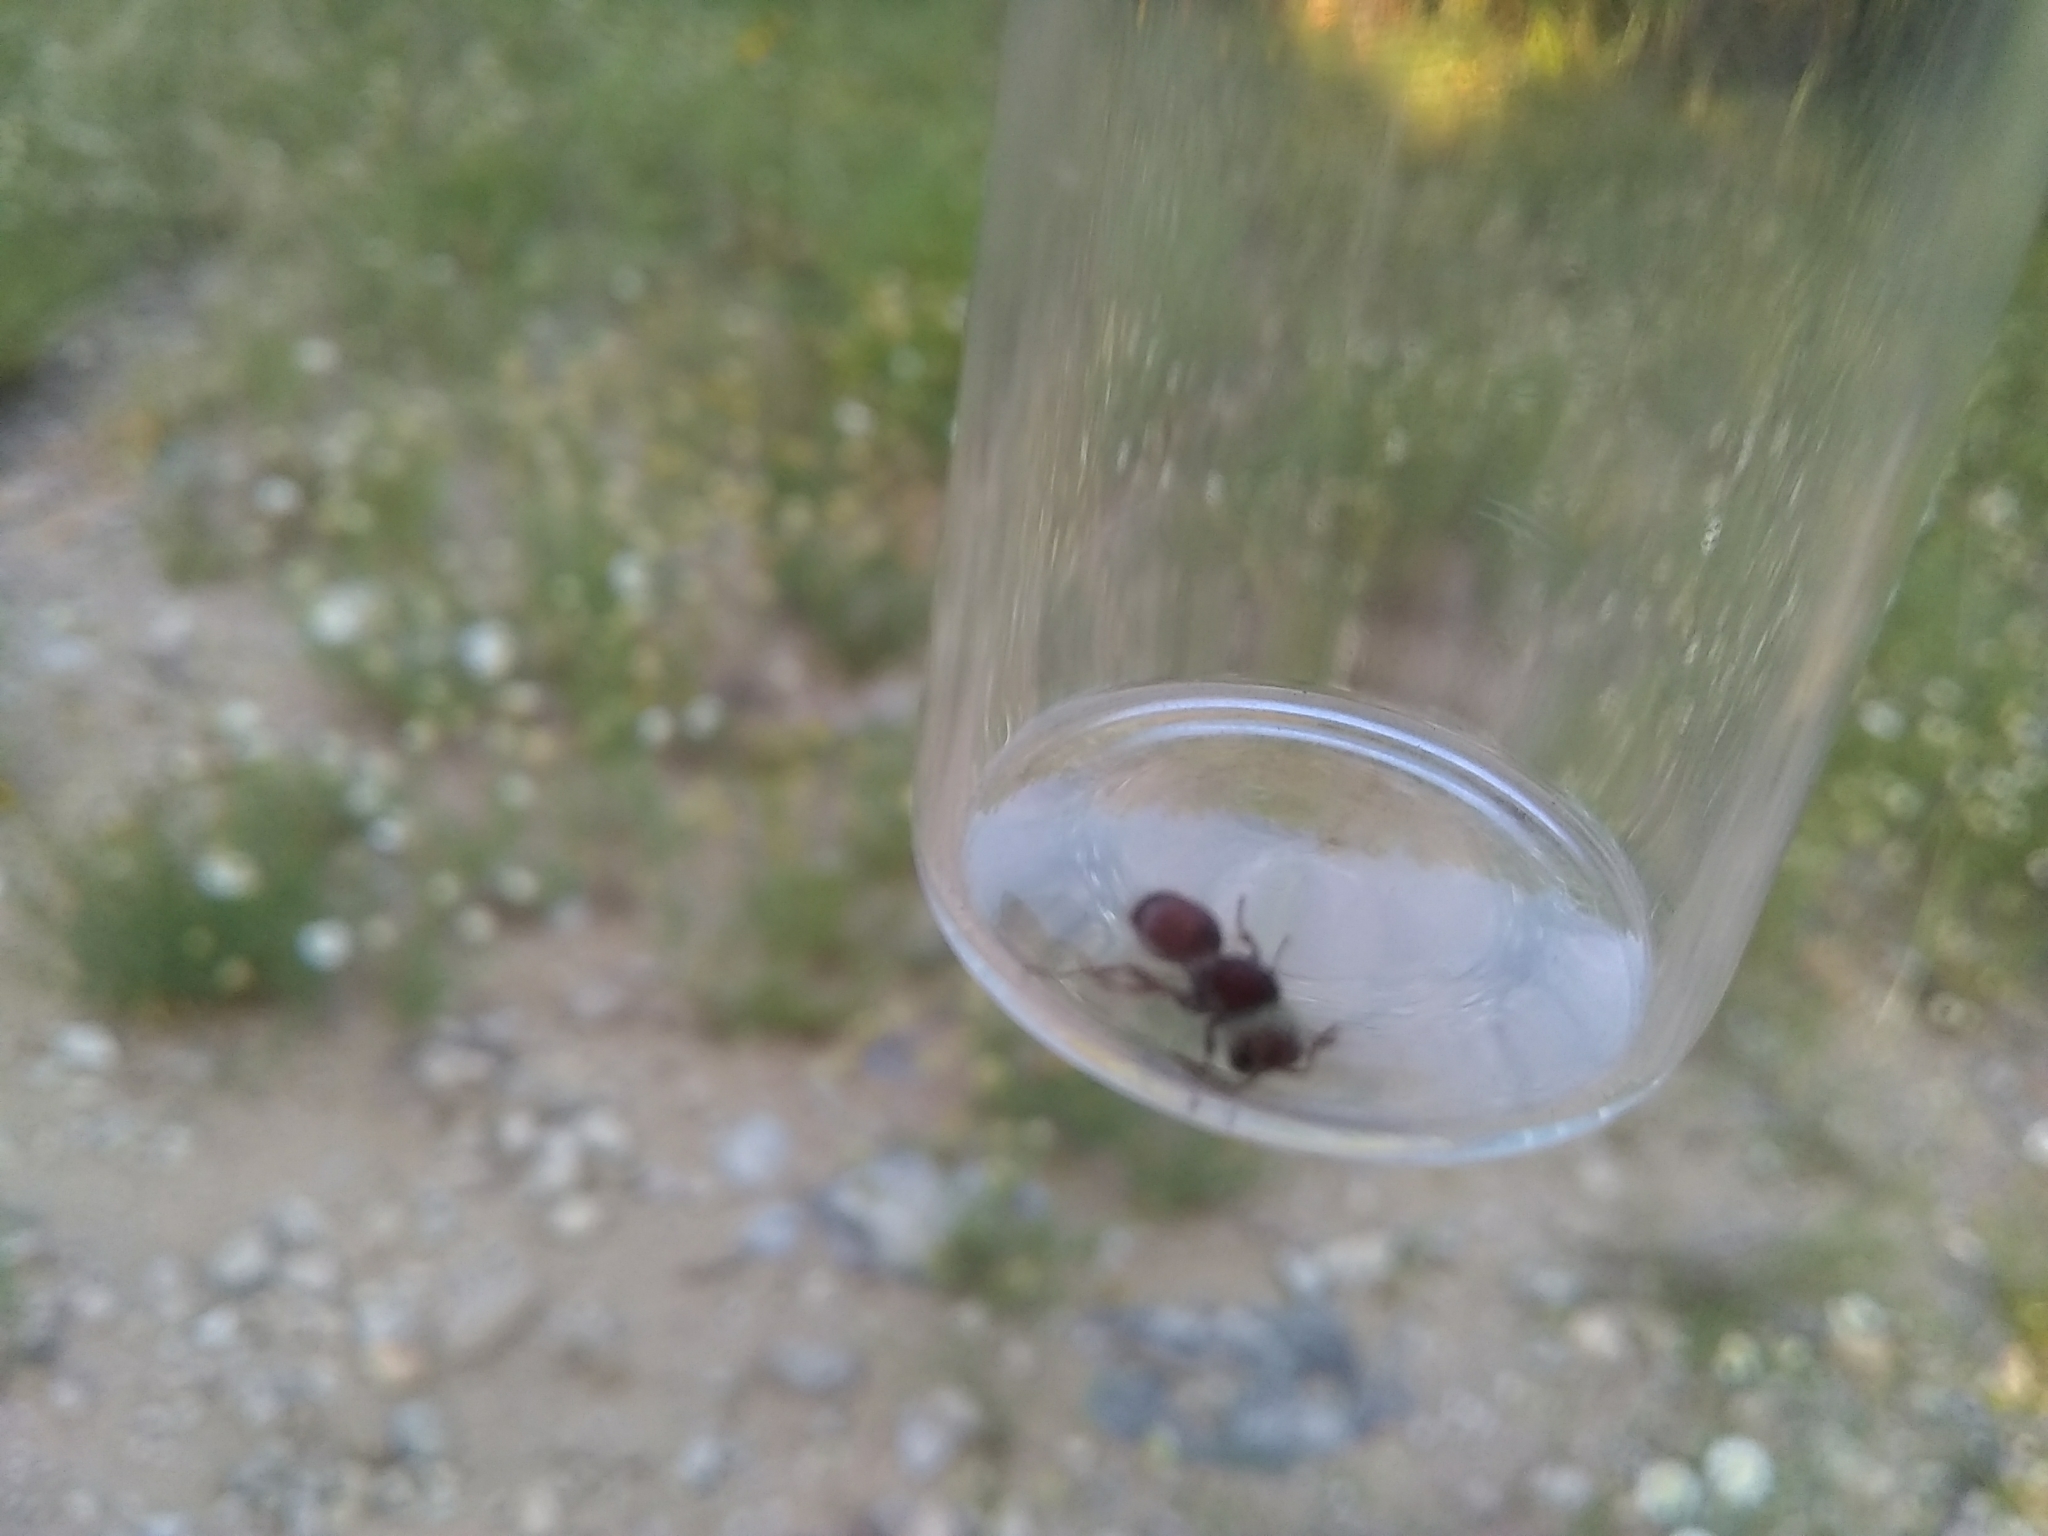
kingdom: Animalia
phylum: Arthropoda
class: Insecta
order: Hymenoptera
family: Mutillidae
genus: Pseudomethoca
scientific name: Pseudomethoca contumax
